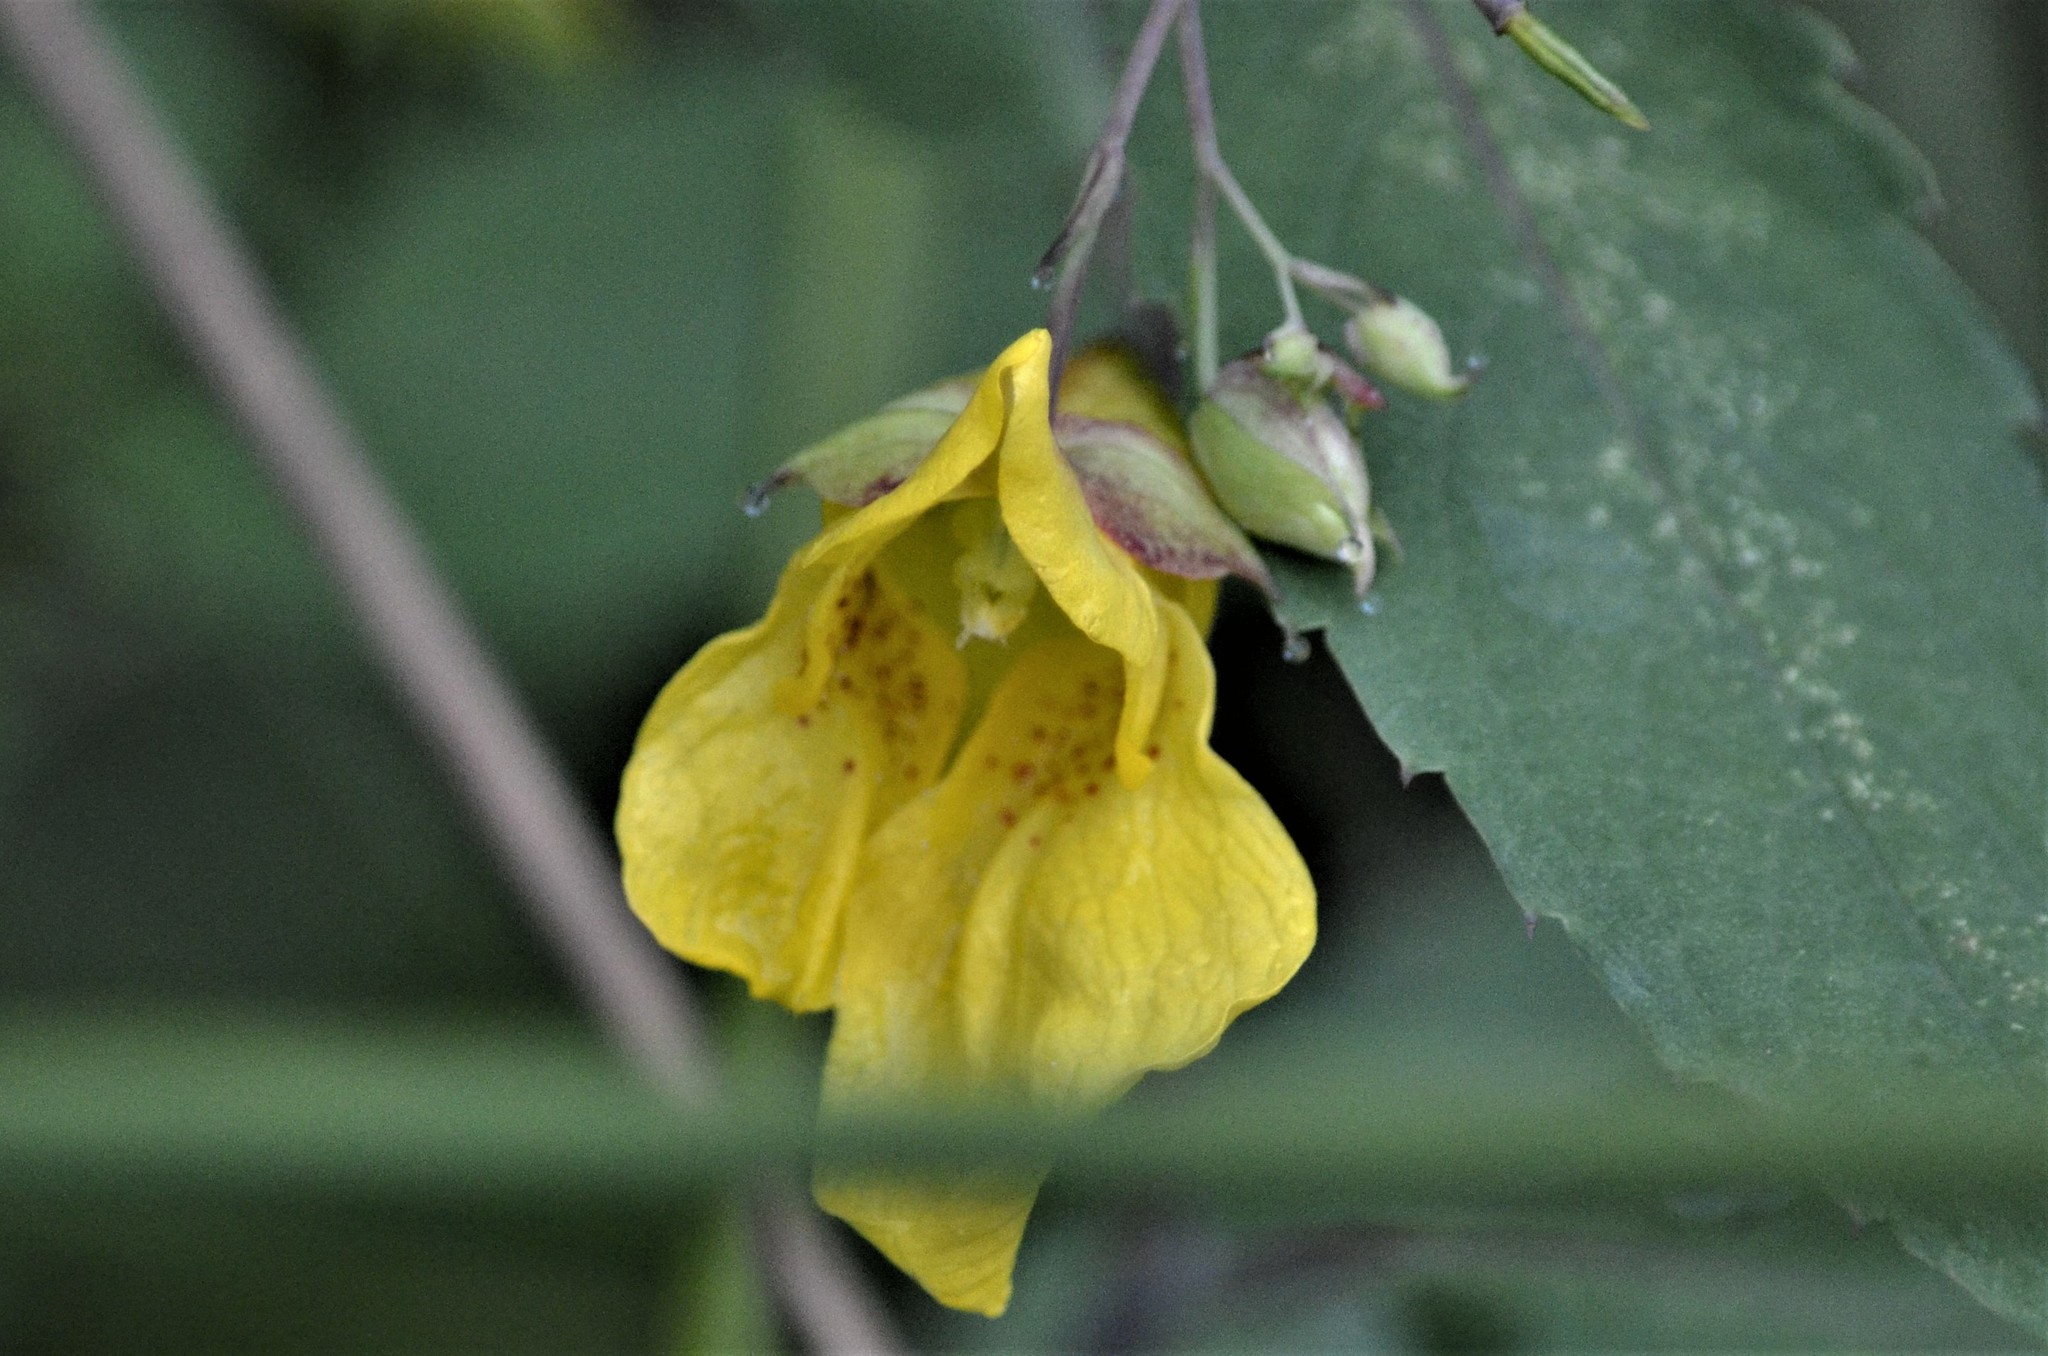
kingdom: Plantae
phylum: Tracheophyta
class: Magnoliopsida
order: Ericales
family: Balsaminaceae
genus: Impatiens
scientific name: Impatiens noli-tangere
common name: Touch-me-not balsam
